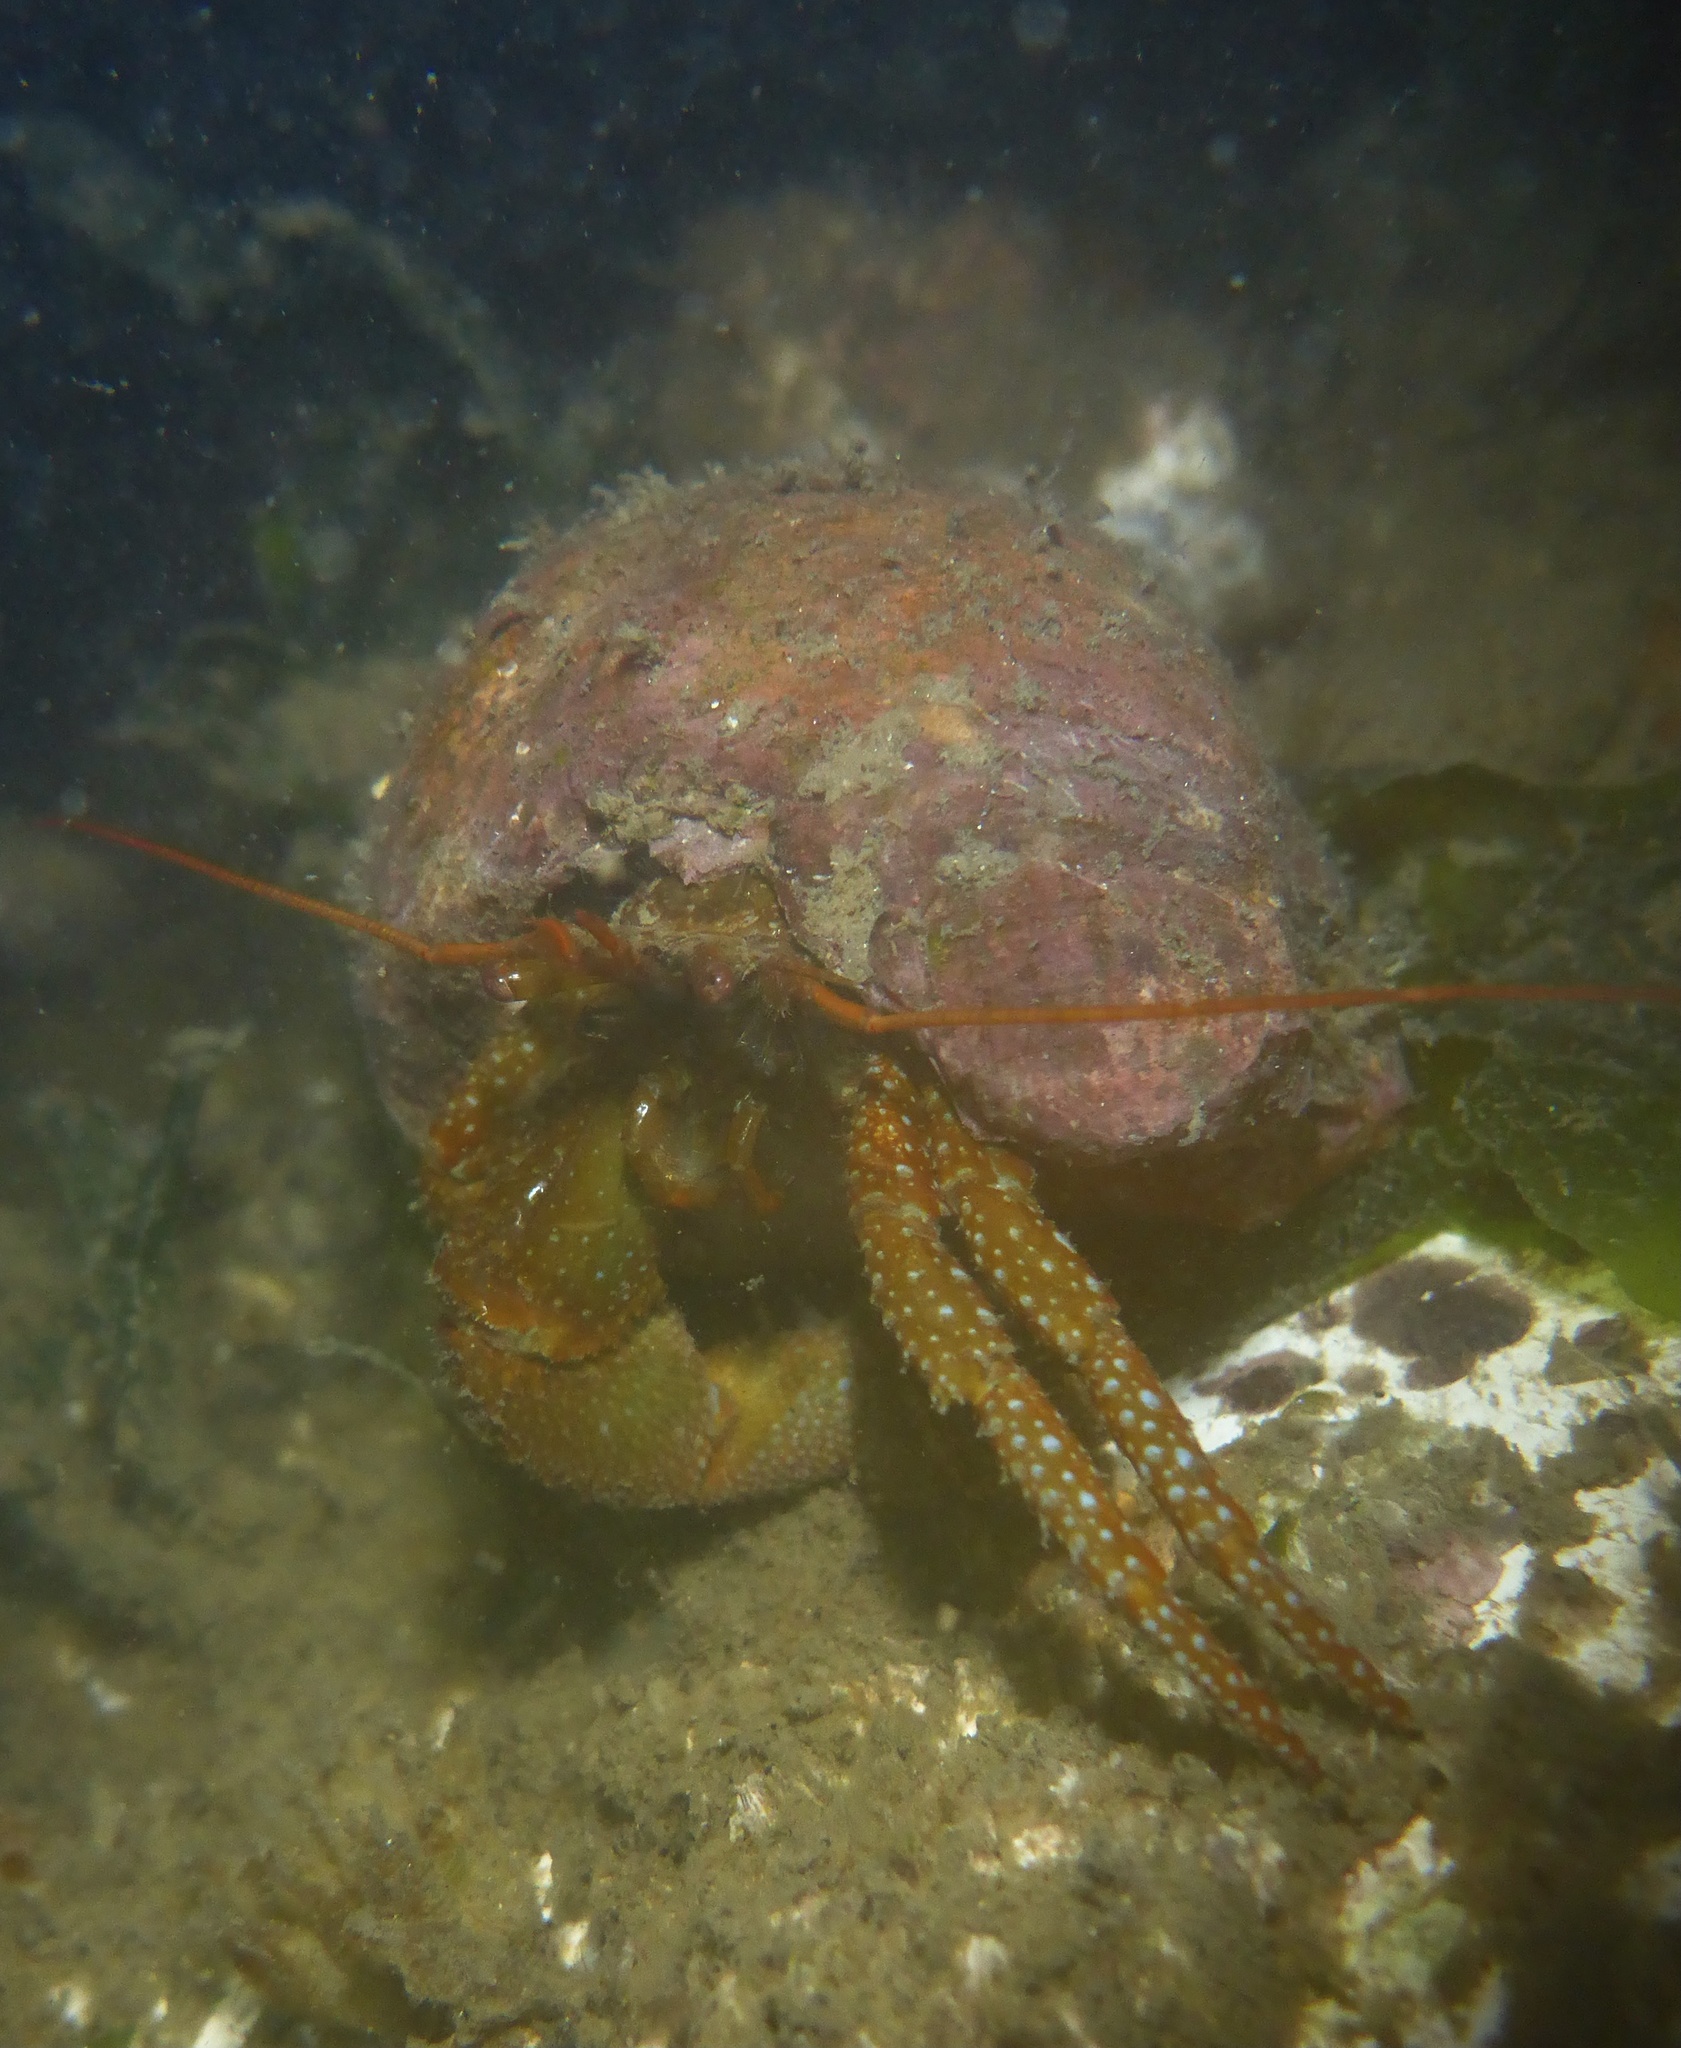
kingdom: Animalia
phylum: Arthropoda
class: Malacostraca
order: Decapoda
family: Paguridae
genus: Pagurus
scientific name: Pagurus granosimanus
